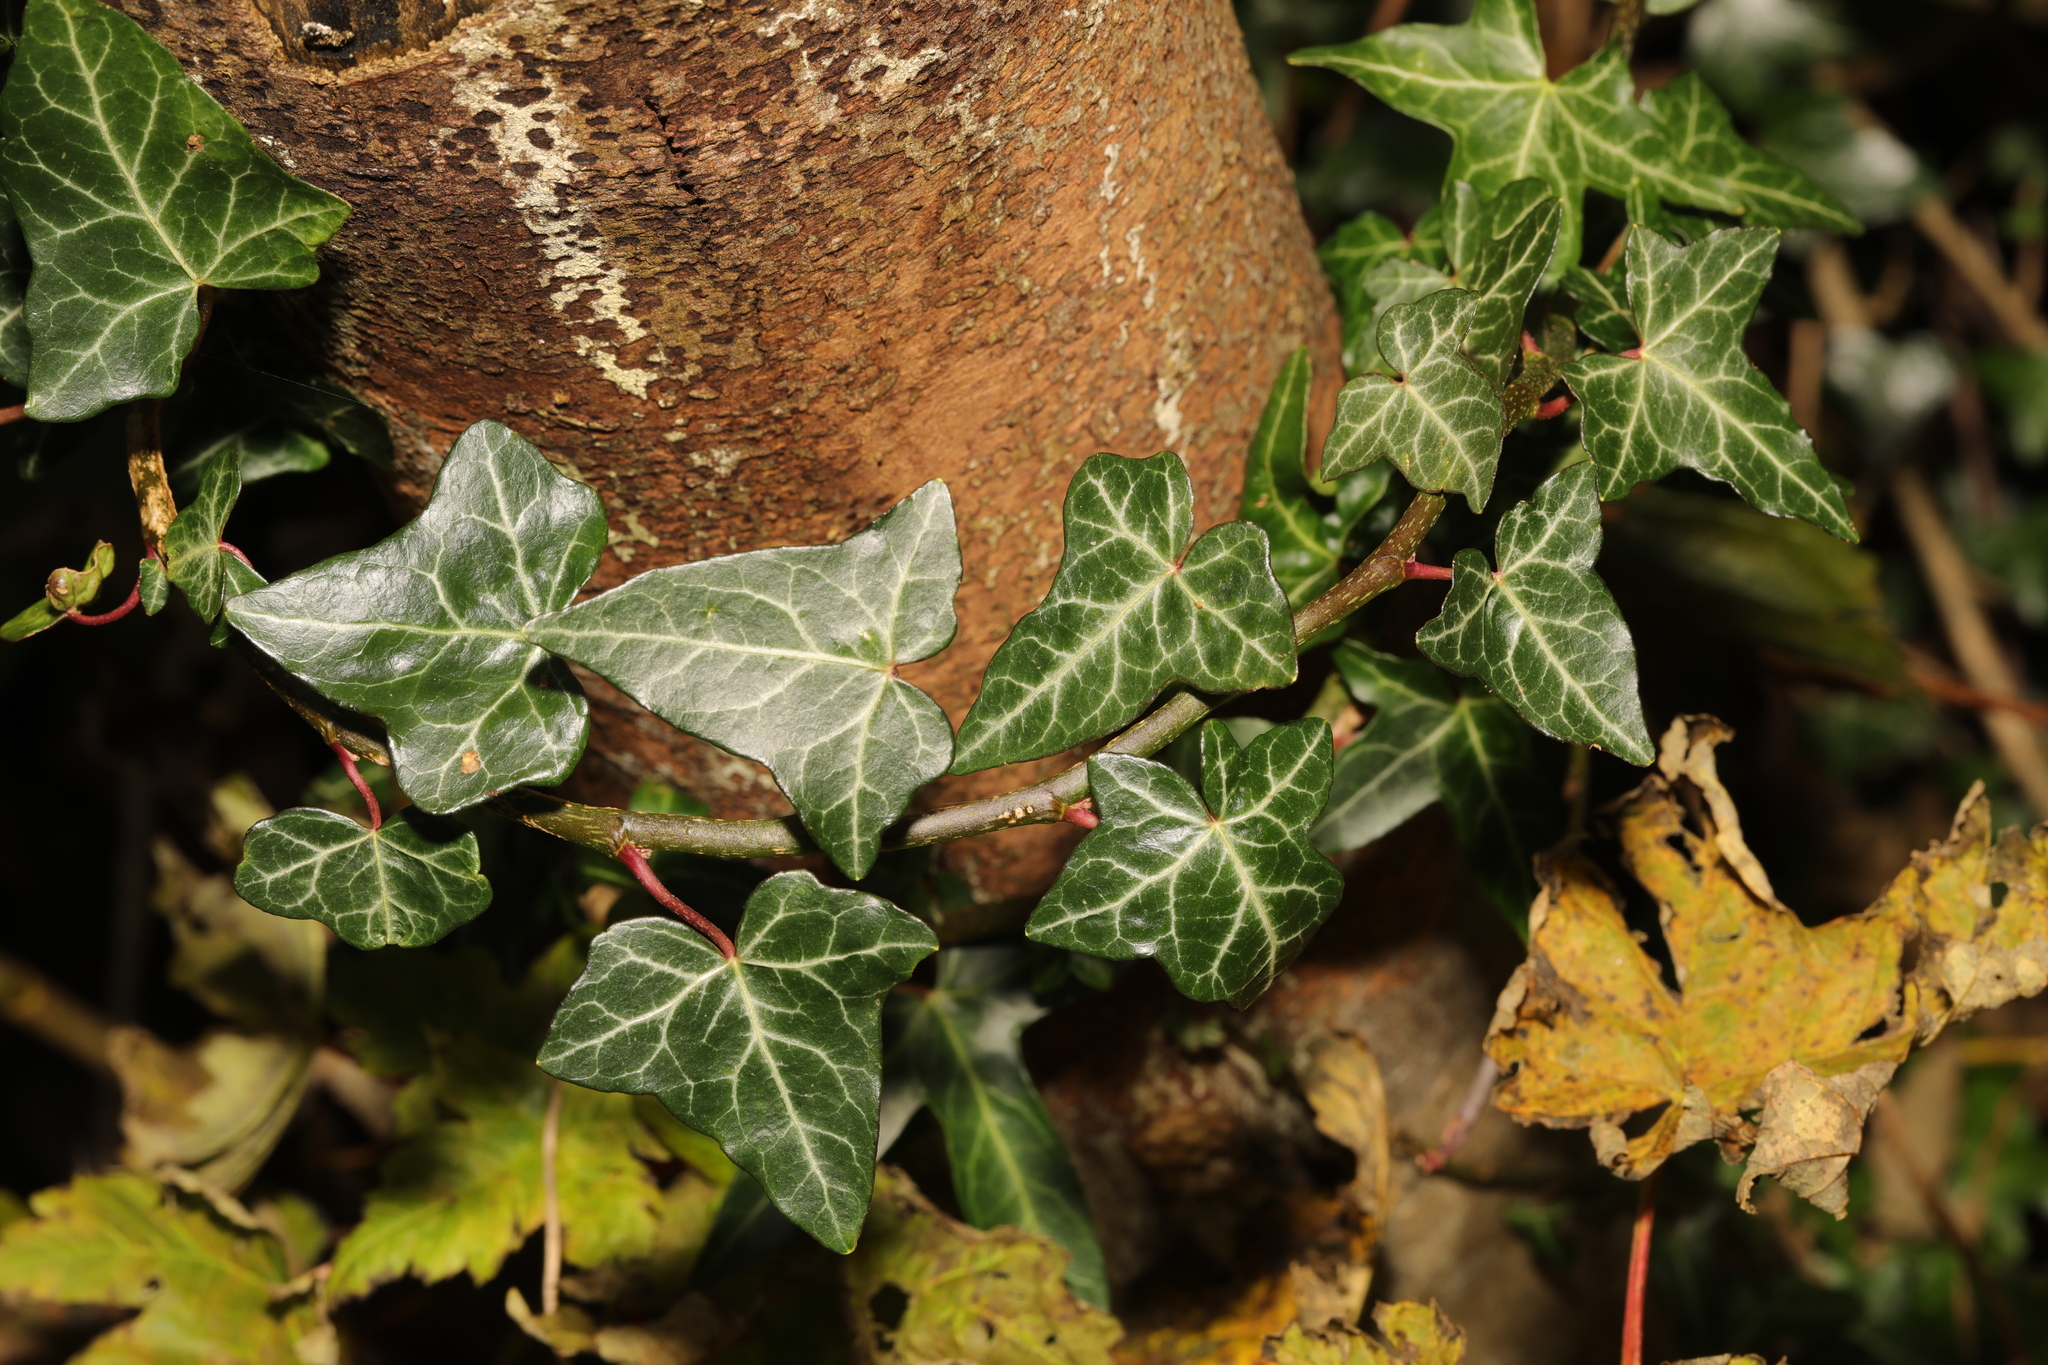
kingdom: Plantae
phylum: Tracheophyta
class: Magnoliopsida
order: Apiales
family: Araliaceae
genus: Hedera
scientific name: Hedera helix
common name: Ivy
